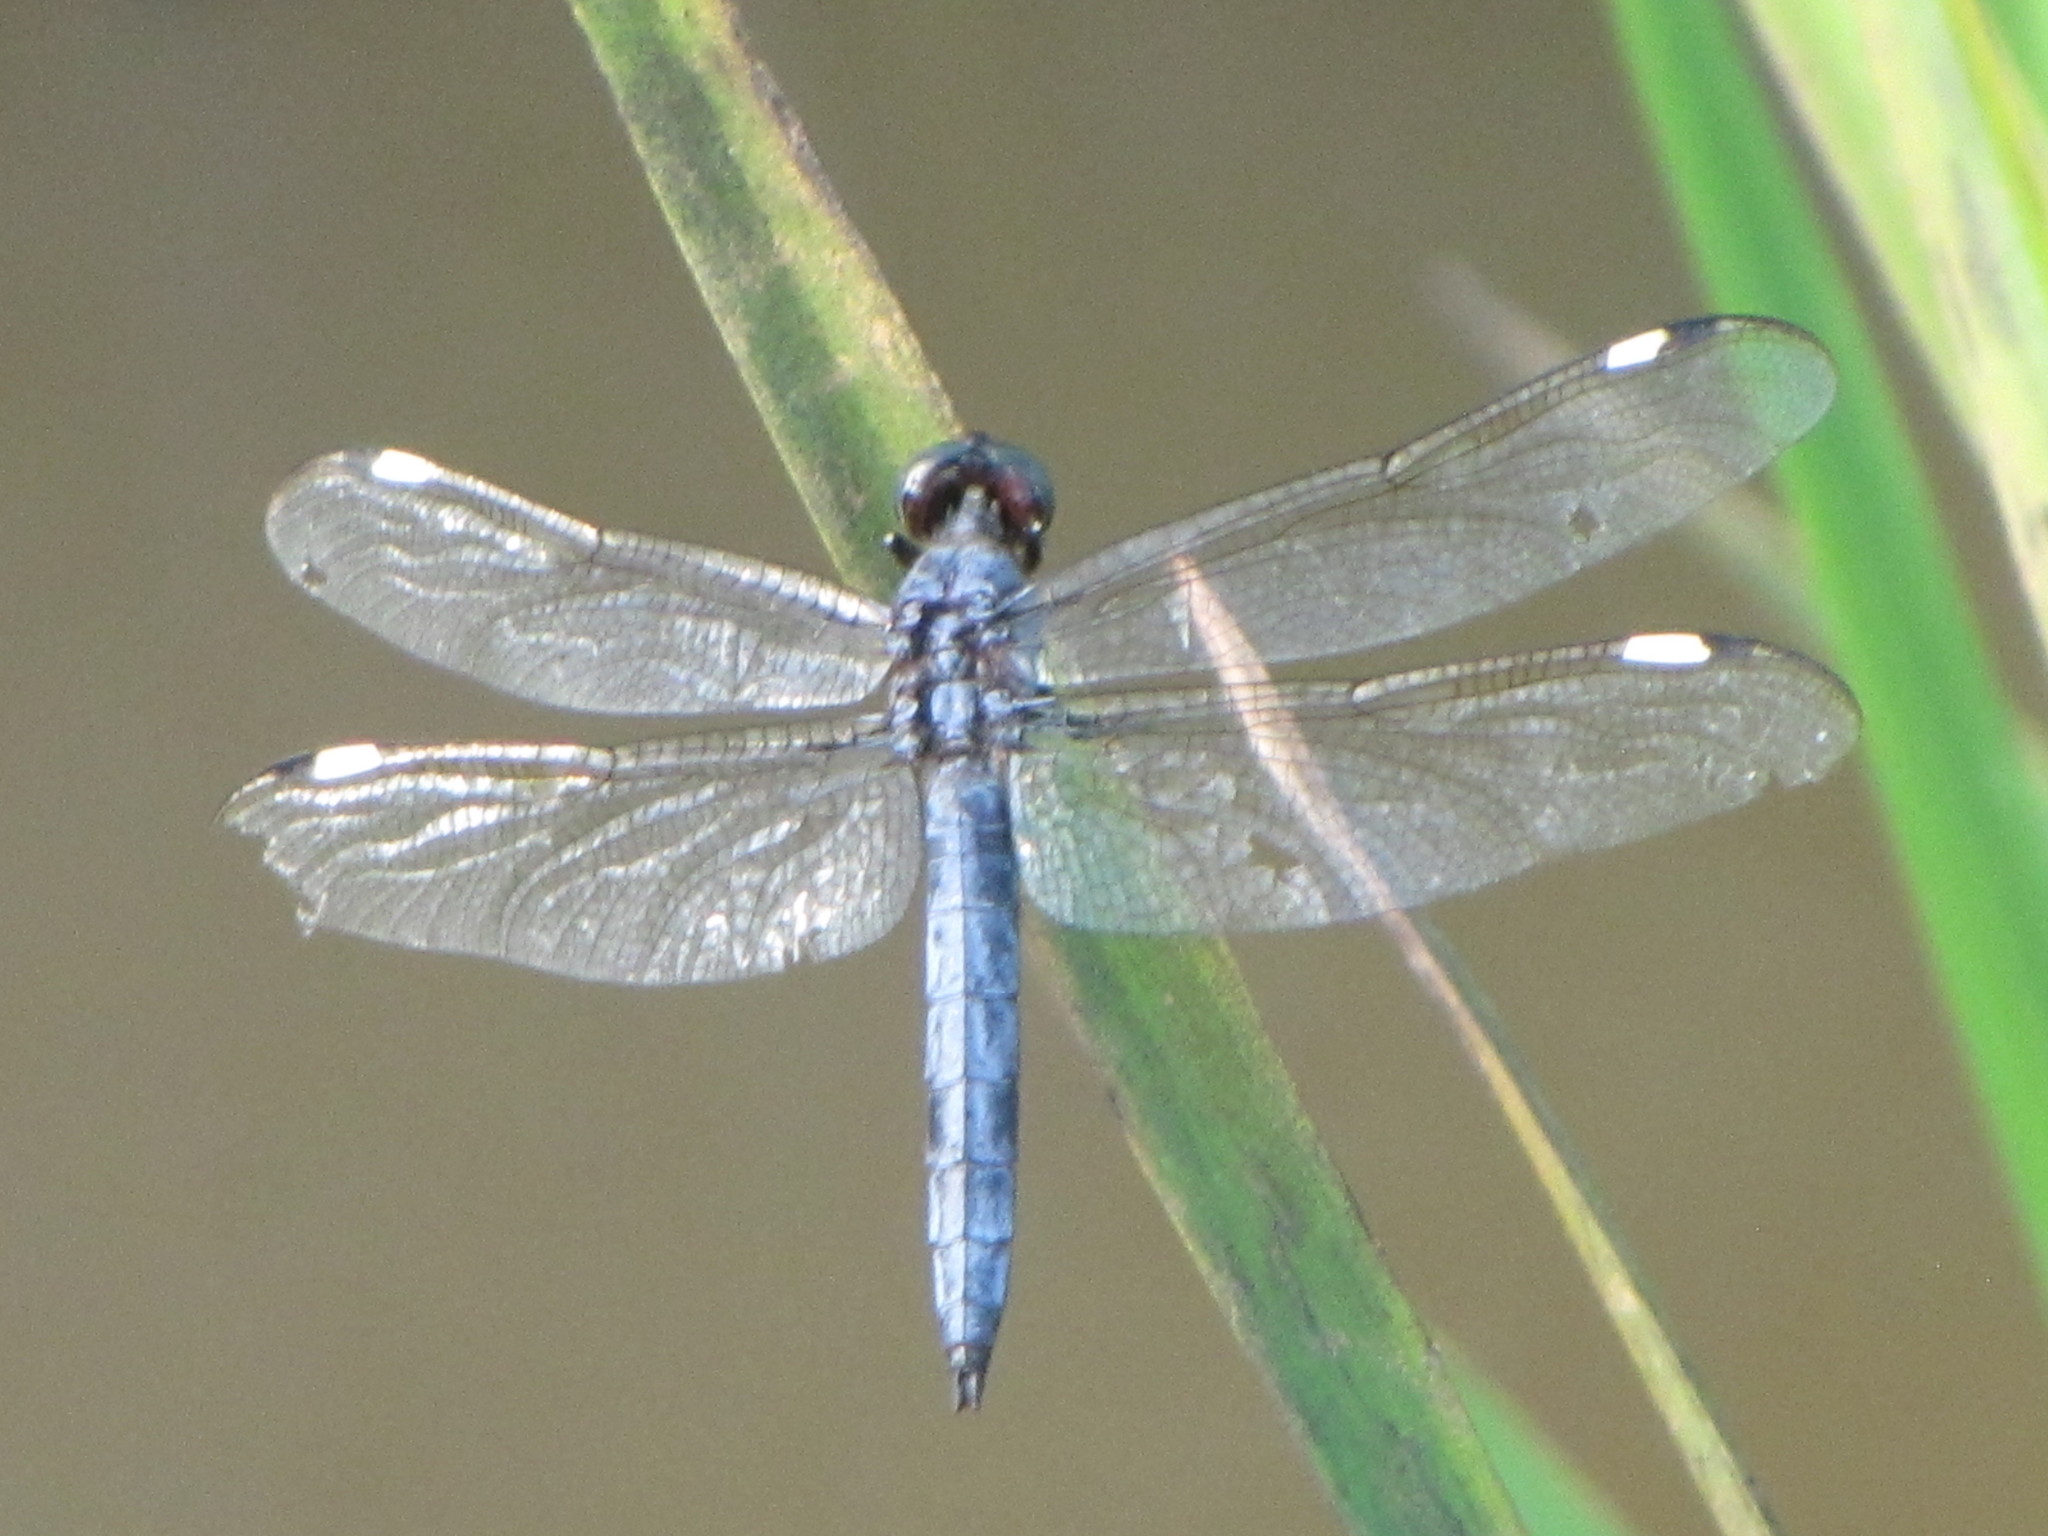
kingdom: Animalia
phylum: Arthropoda
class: Insecta
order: Odonata
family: Libellulidae
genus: Libellula
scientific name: Libellula cyanea
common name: Spangled skimmer
